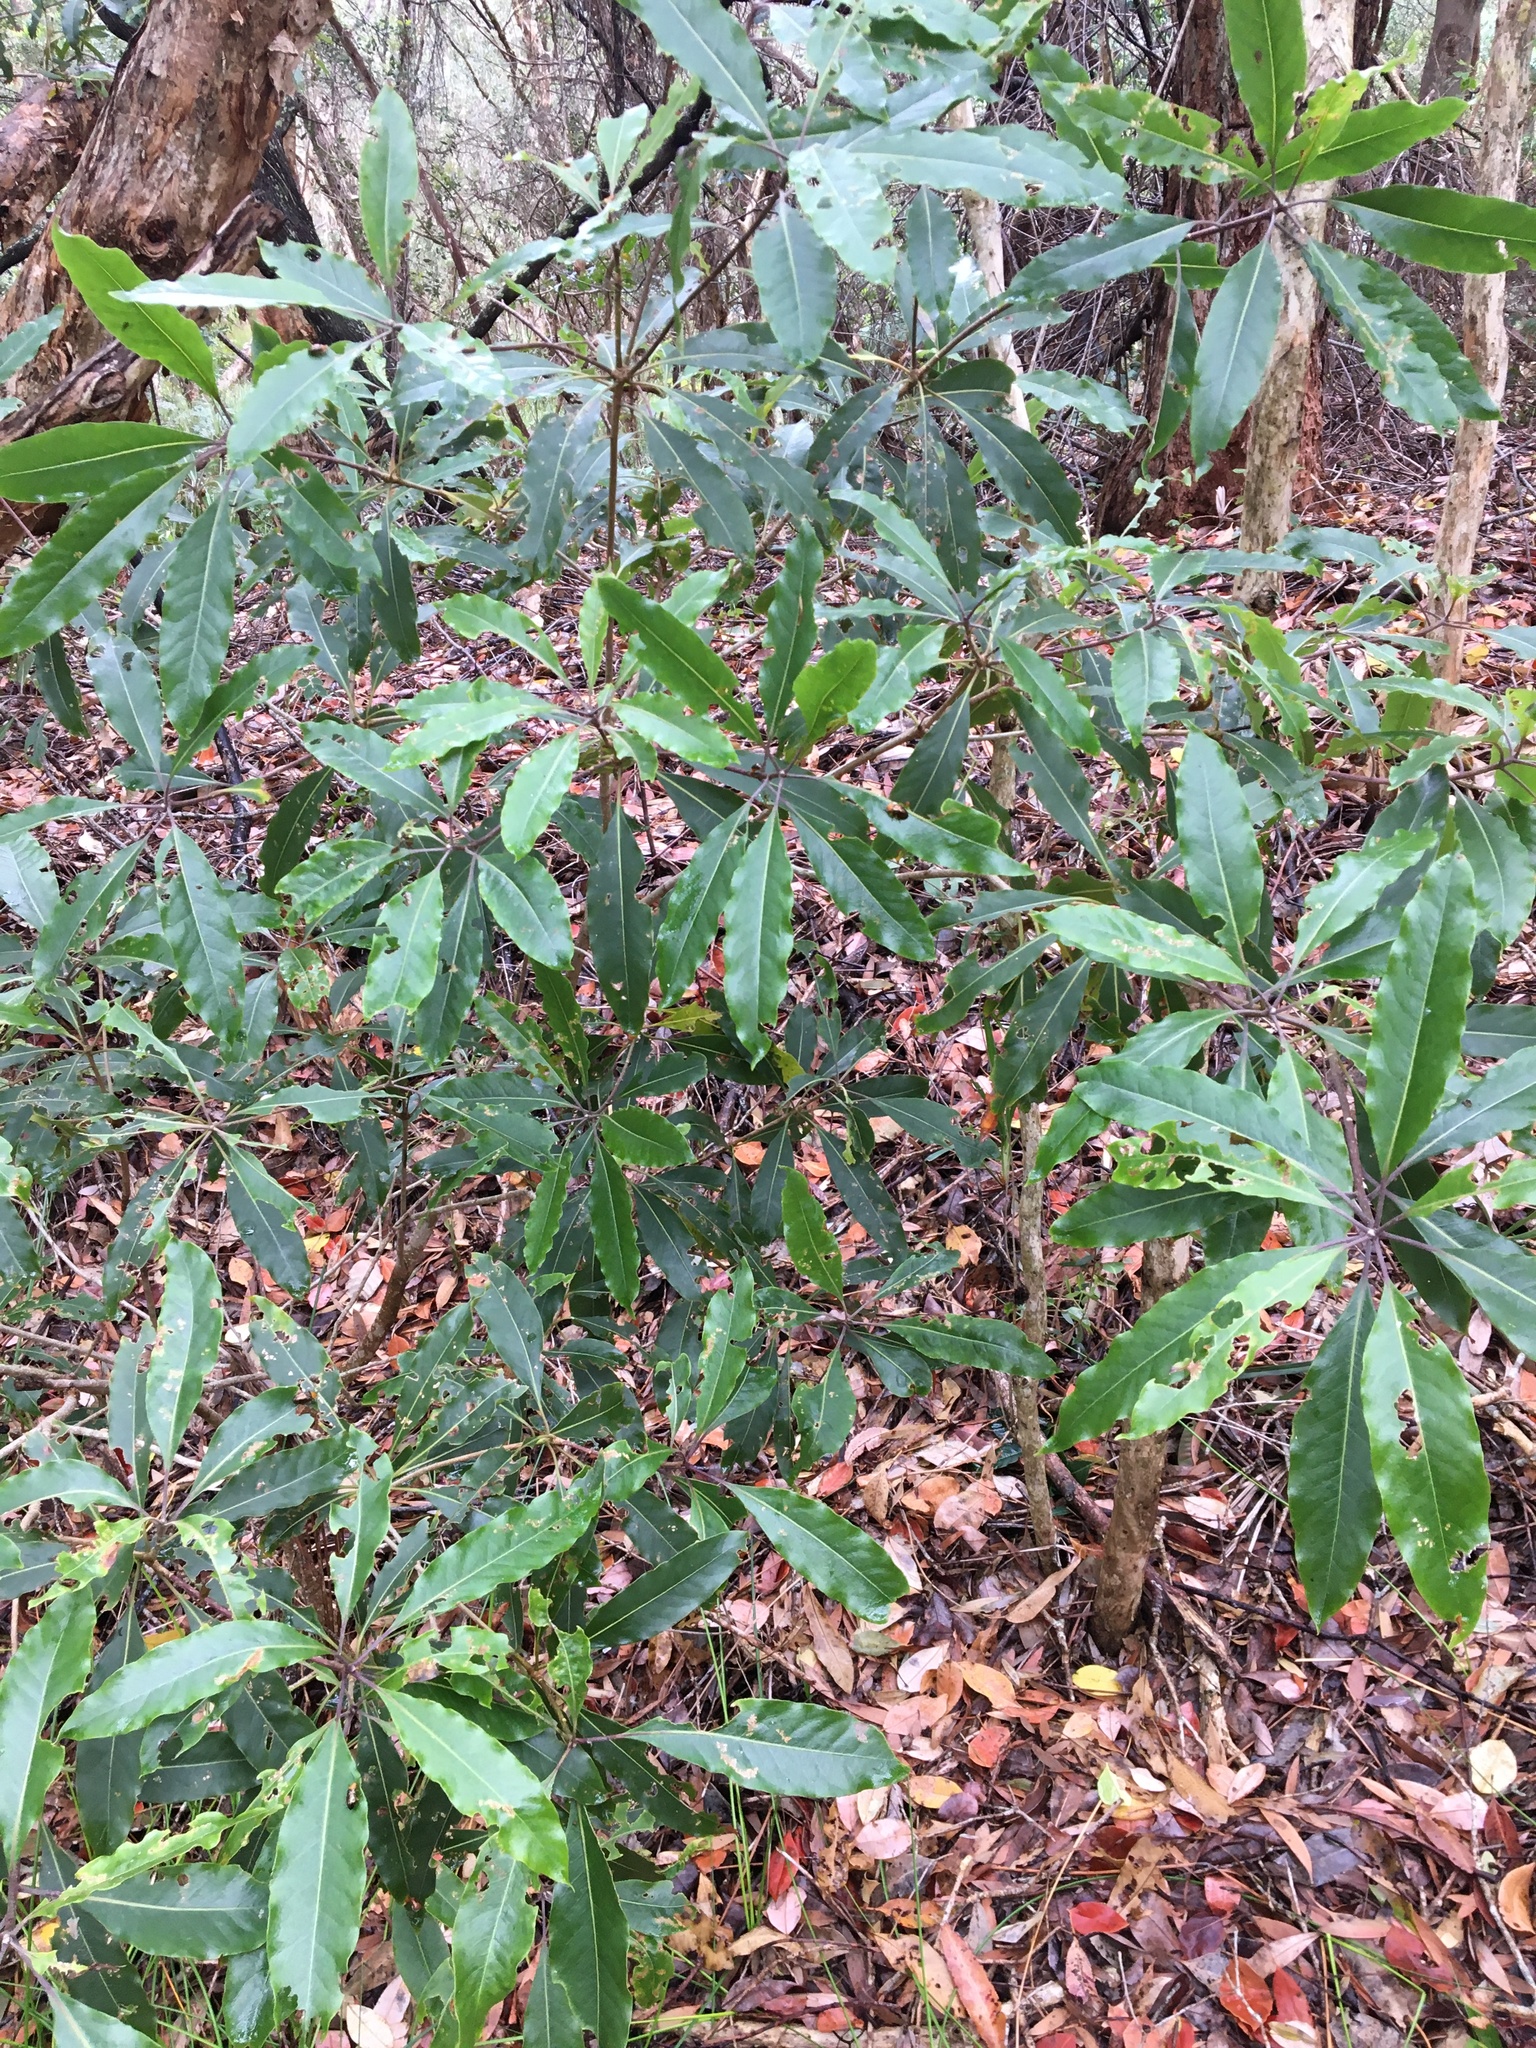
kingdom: Plantae
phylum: Tracheophyta
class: Magnoliopsida
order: Apiales
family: Pittosporaceae
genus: Pittosporum
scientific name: Pittosporum undulatum
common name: Australian cheesewood
